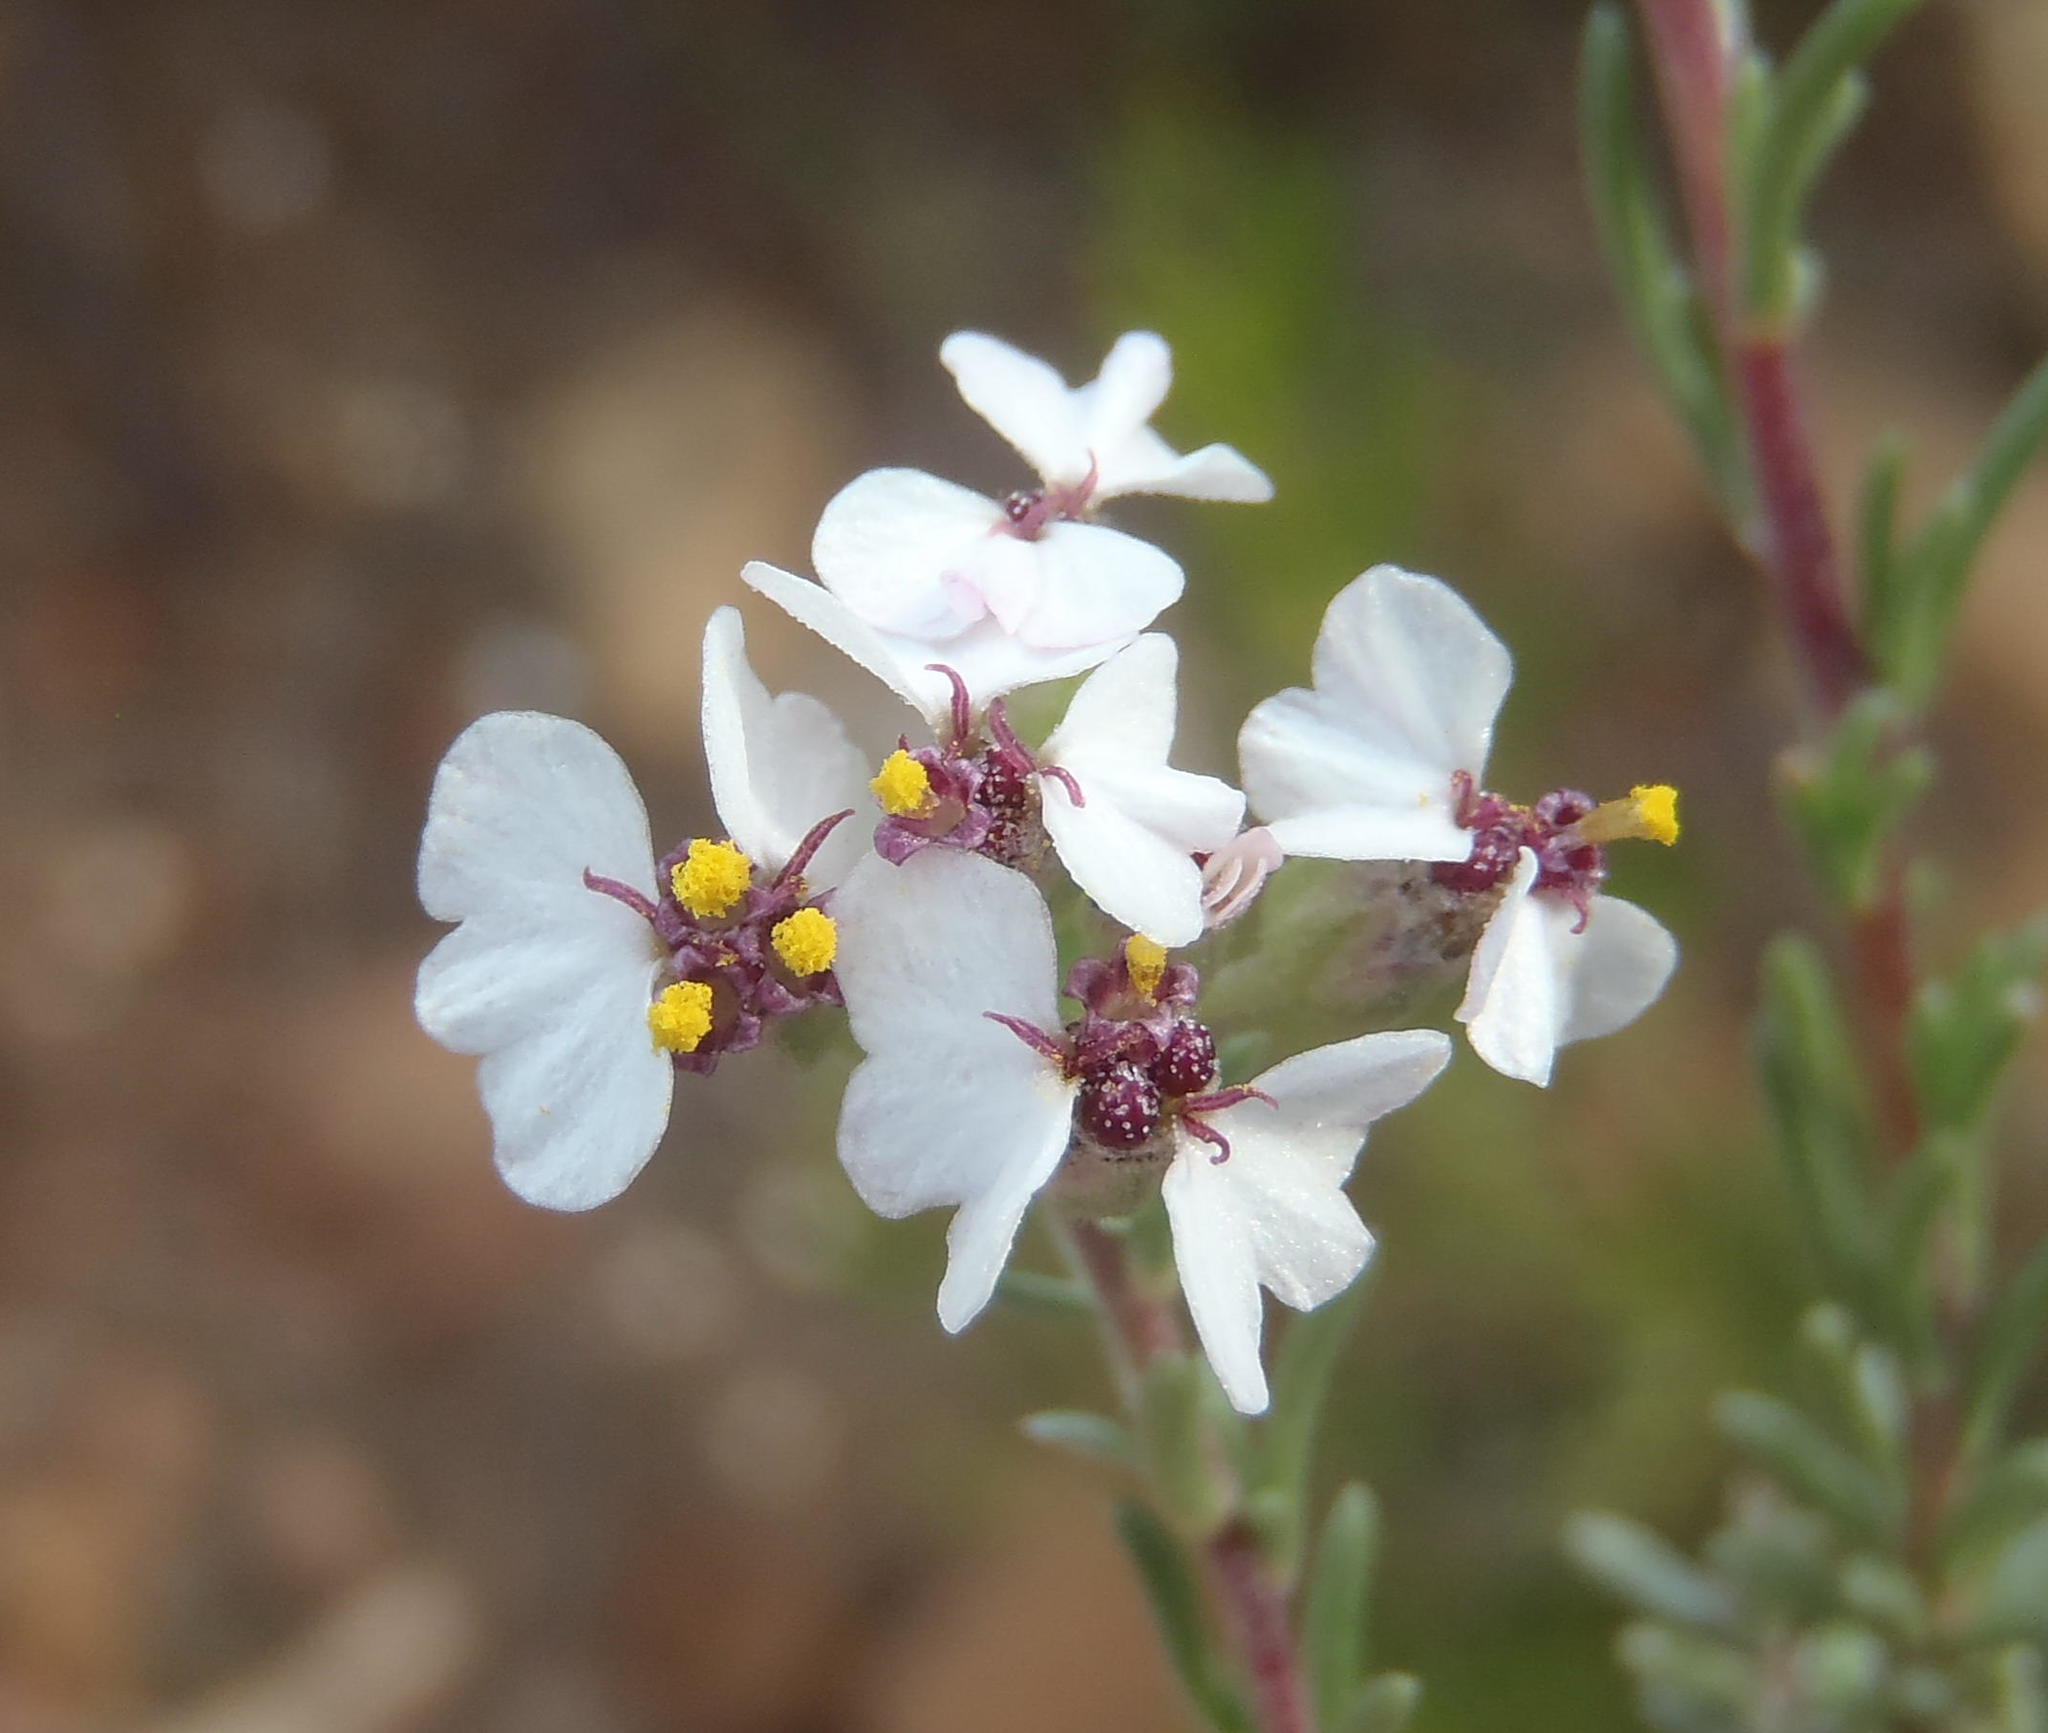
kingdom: Plantae
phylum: Tracheophyta
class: Magnoliopsida
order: Asterales
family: Asteraceae
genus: Eriocephalus
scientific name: Eriocephalus africanus
